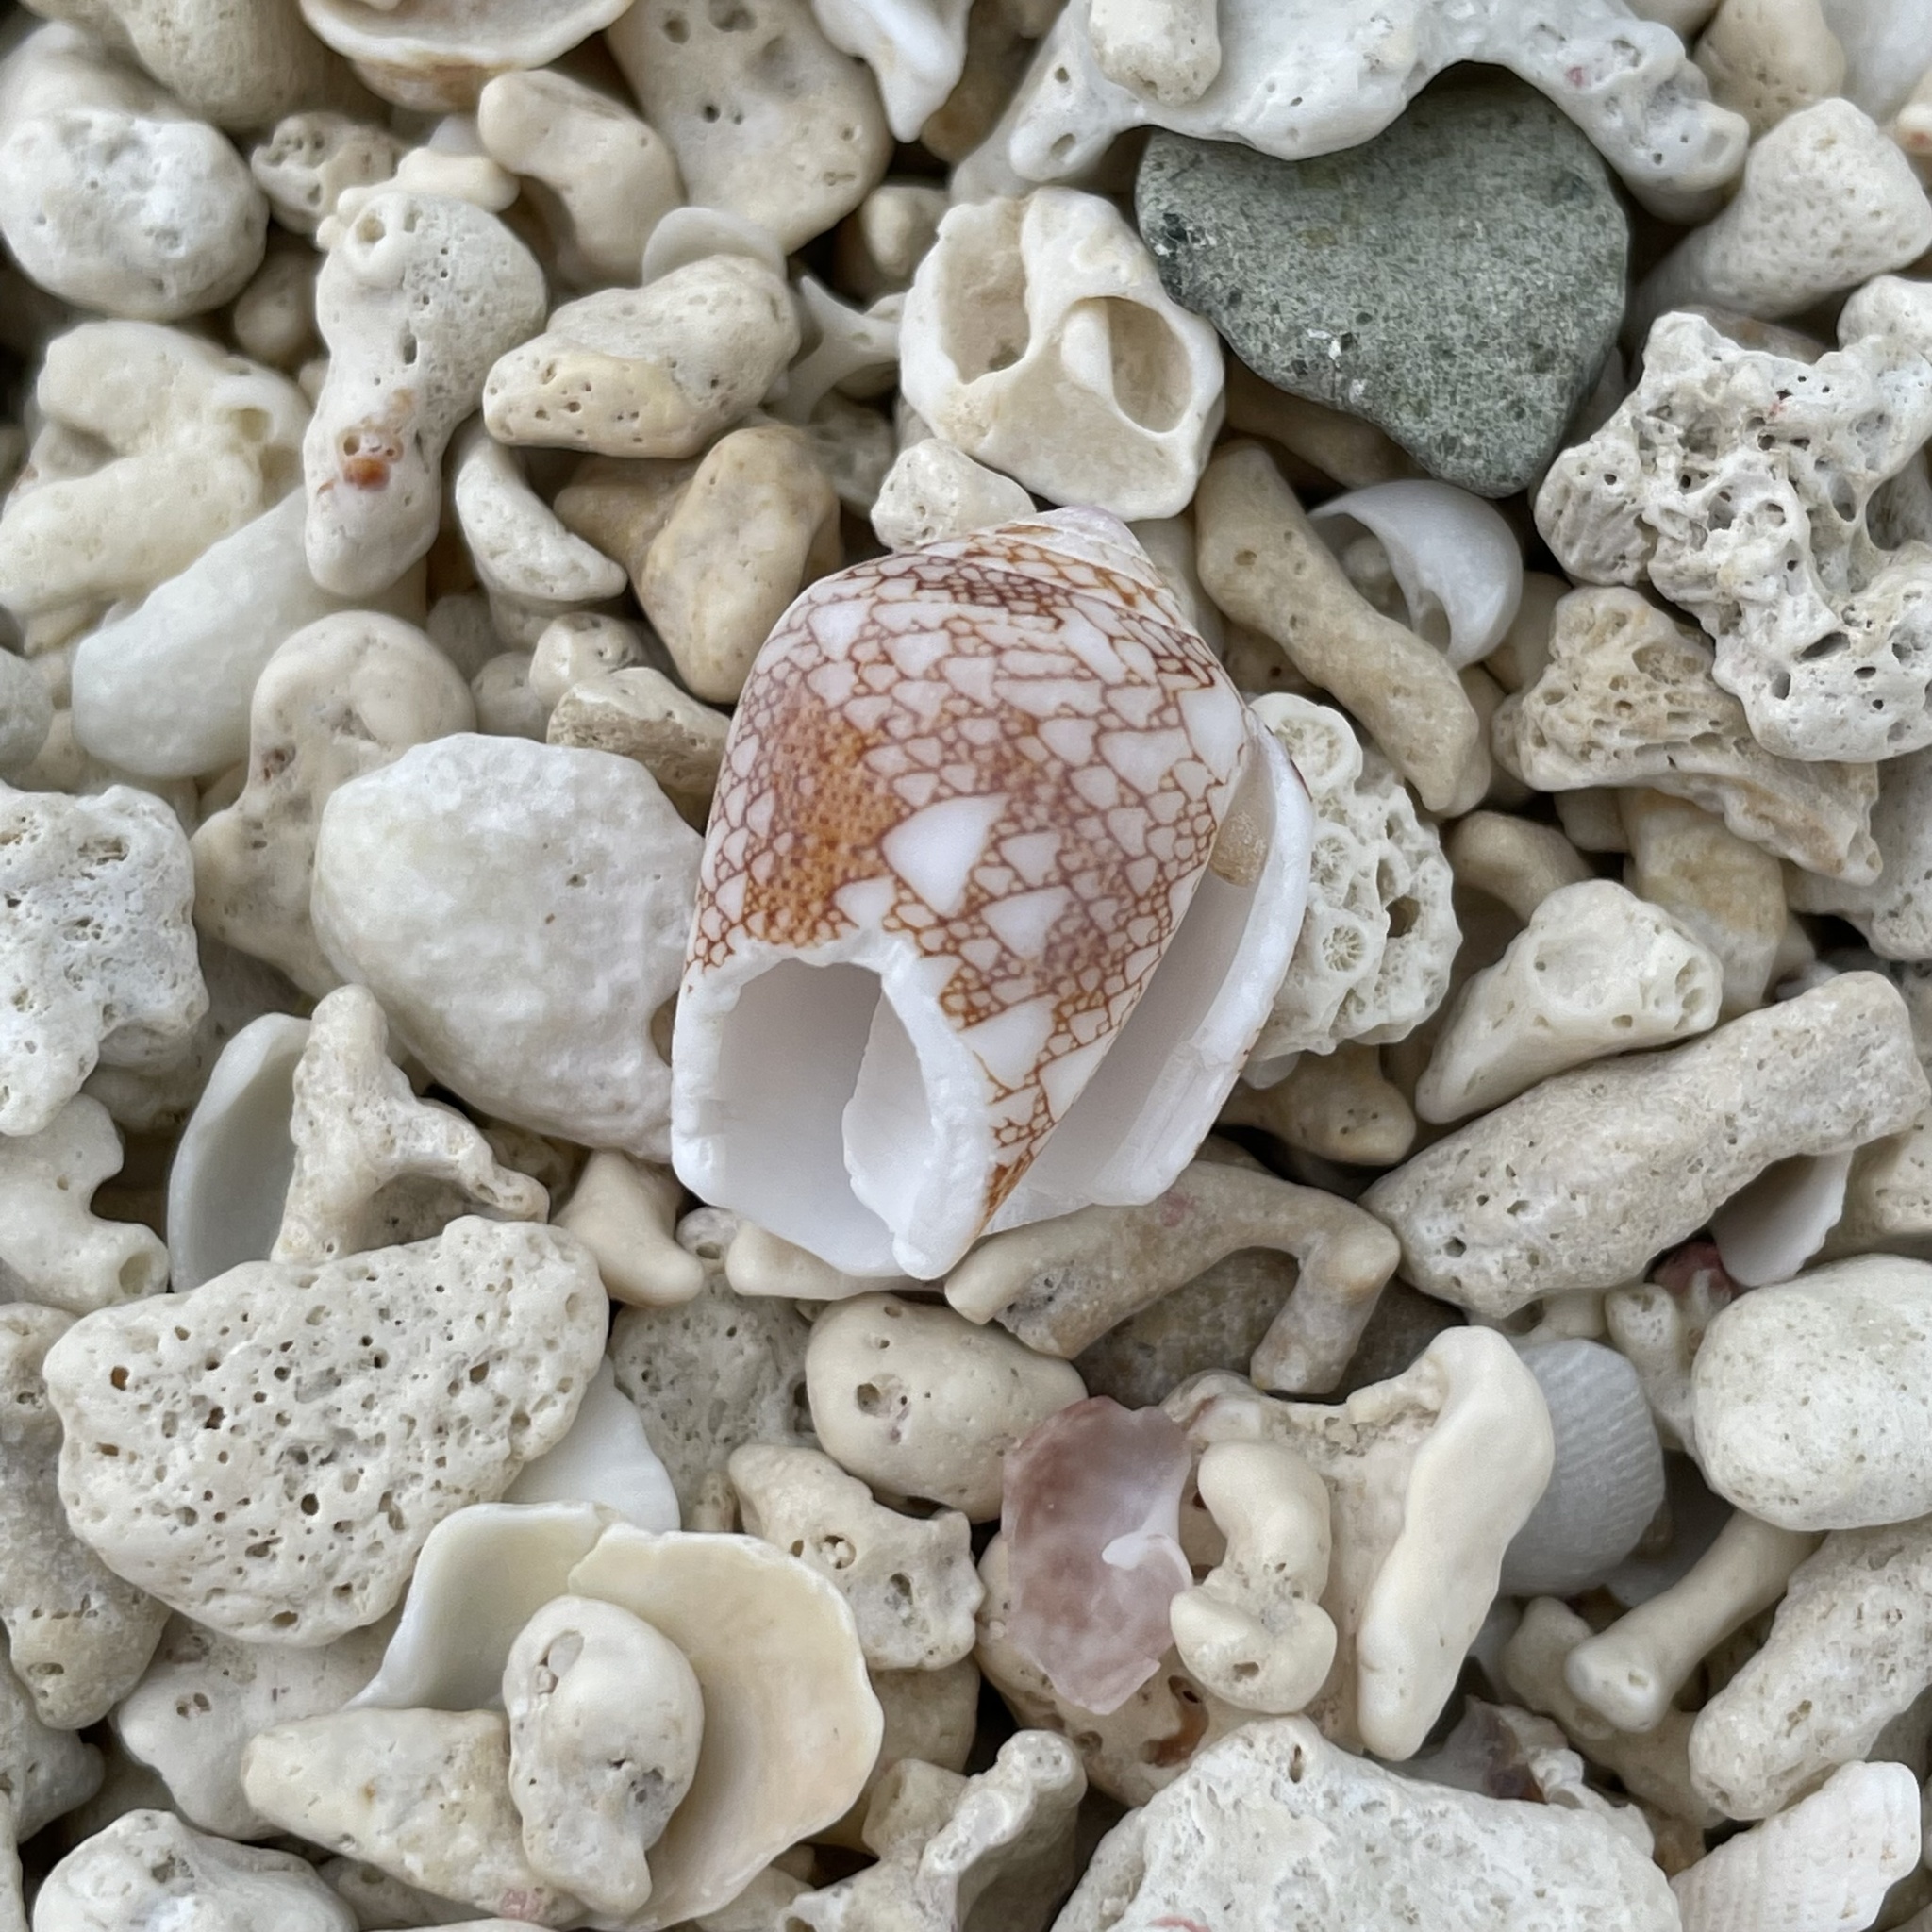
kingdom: Animalia
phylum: Mollusca
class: Gastropoda
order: Neogastropoda
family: Conidae
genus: Conus
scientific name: Conus omaria
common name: Omaria cone
